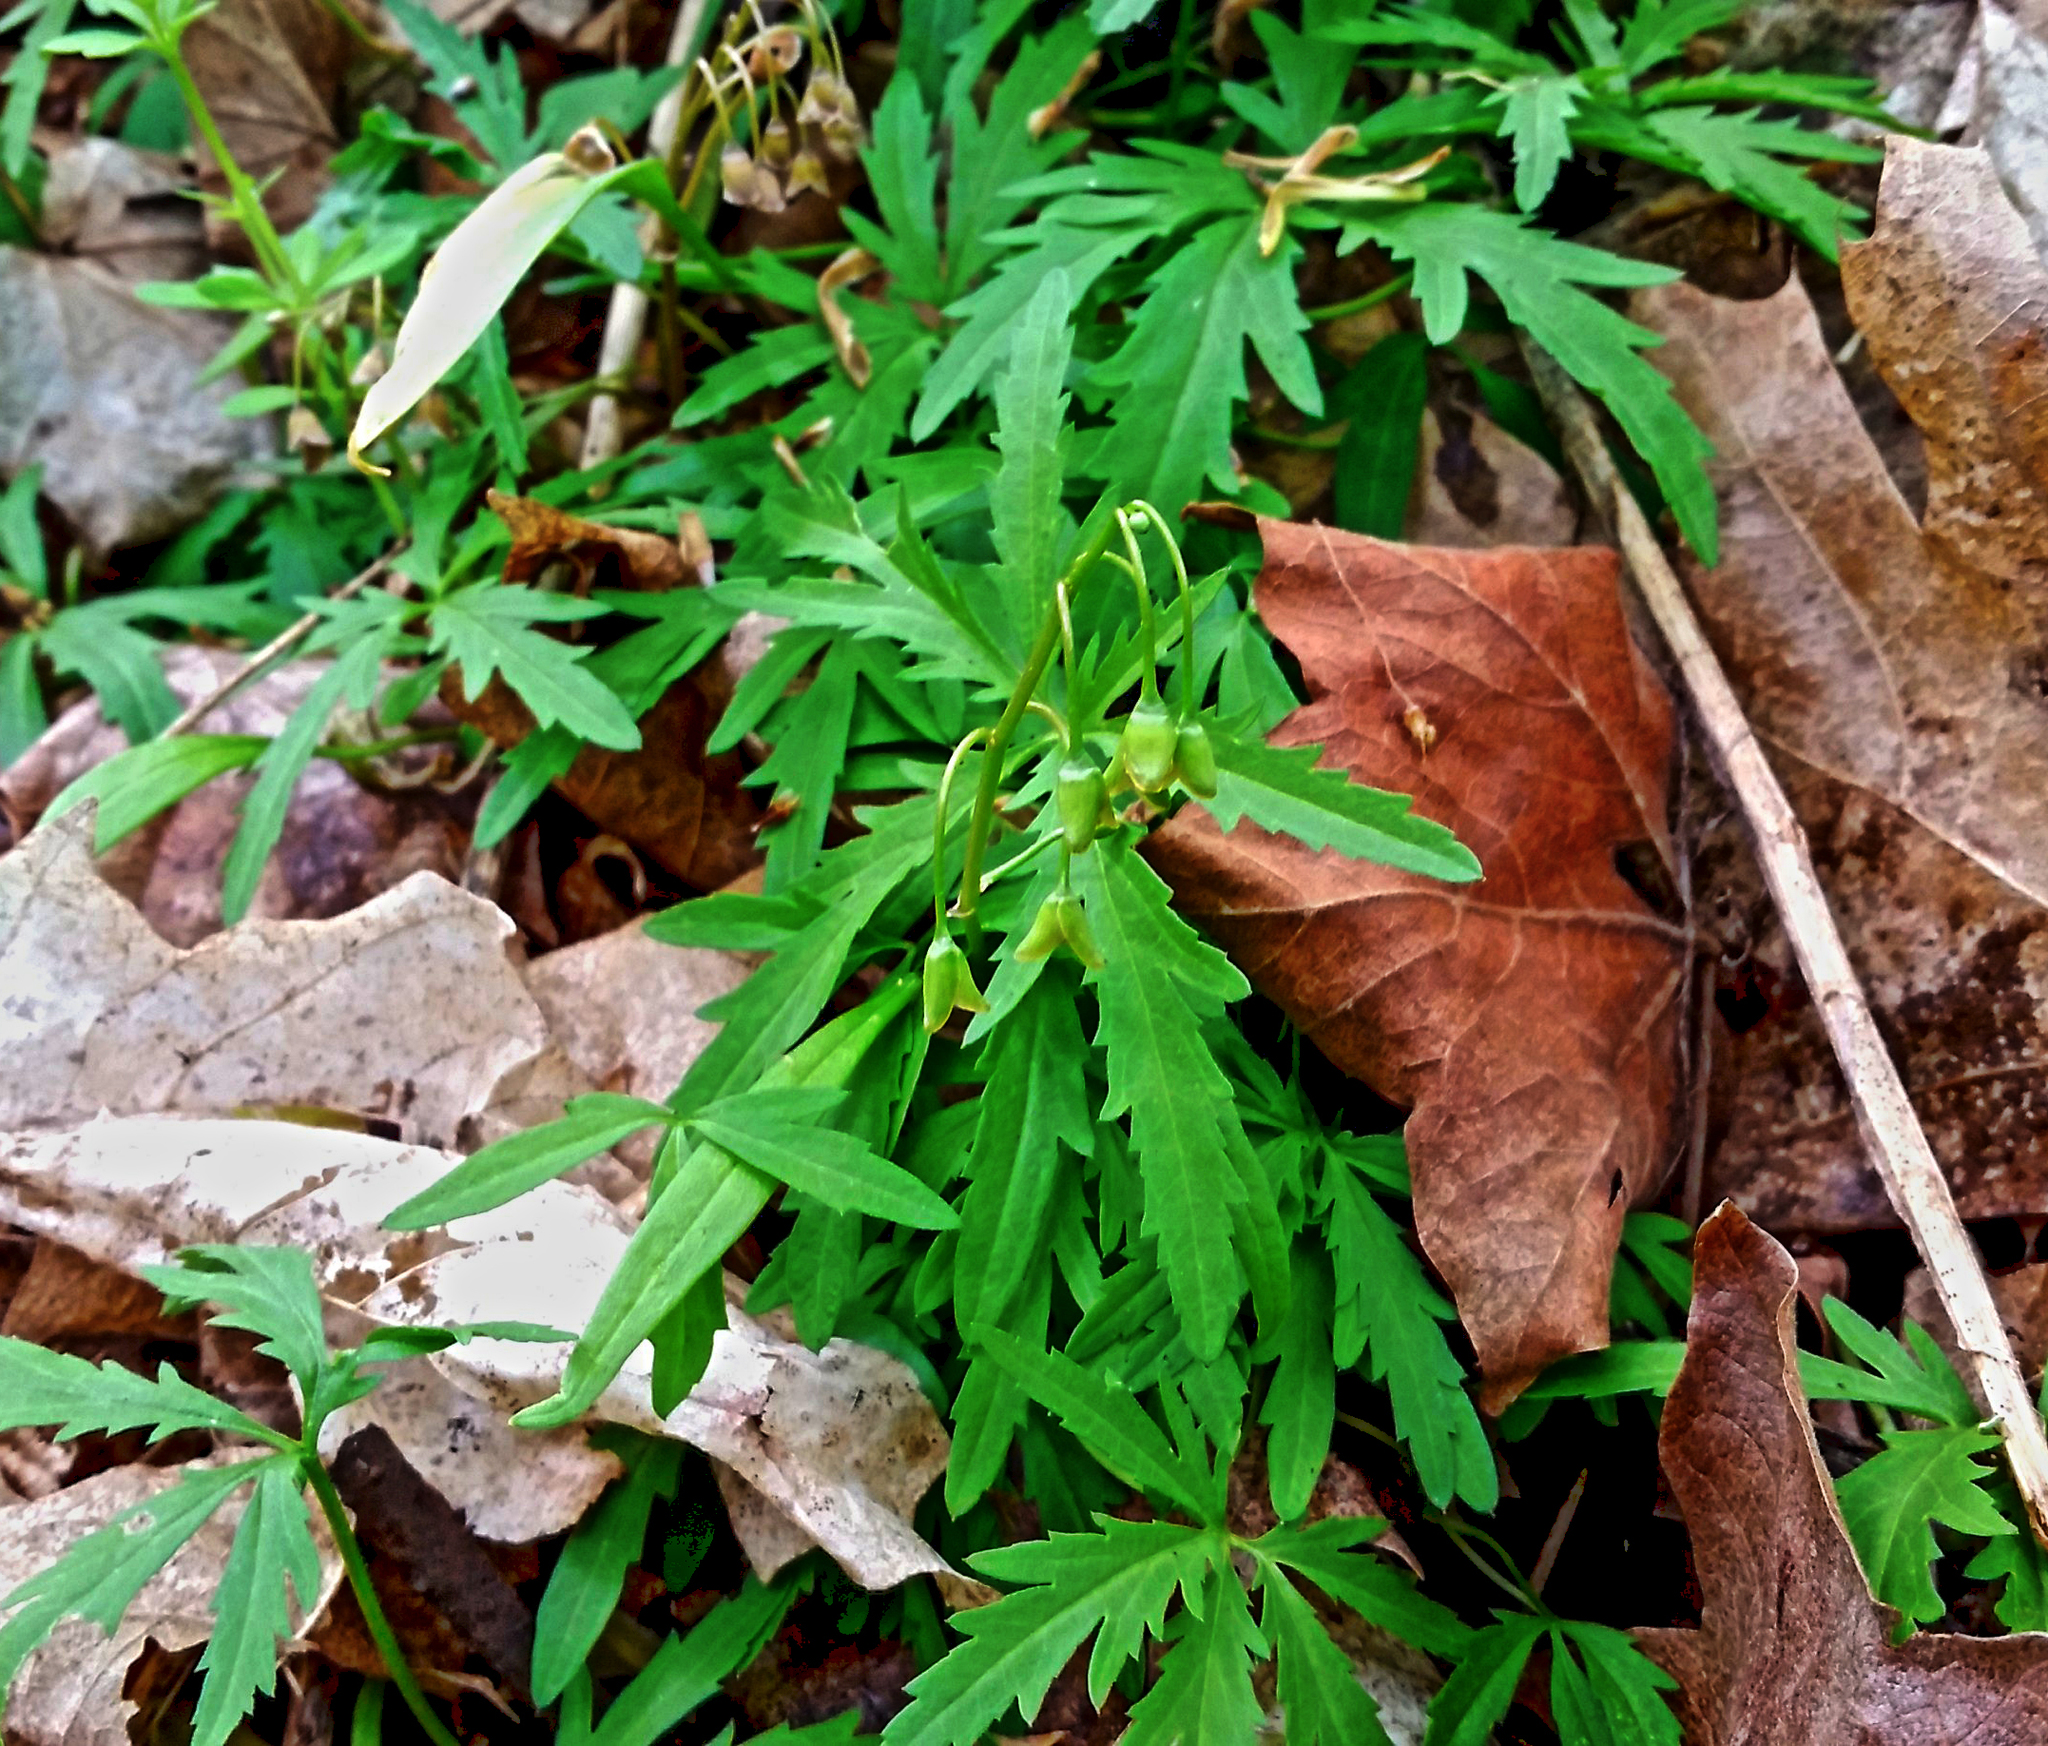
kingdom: Plantae
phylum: Tracheophyta
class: Magnoliopsida
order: Brassicales
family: Brassicaceae
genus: Cardamine
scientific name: Cardamine concatenata
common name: Cut-leaf toothcup
